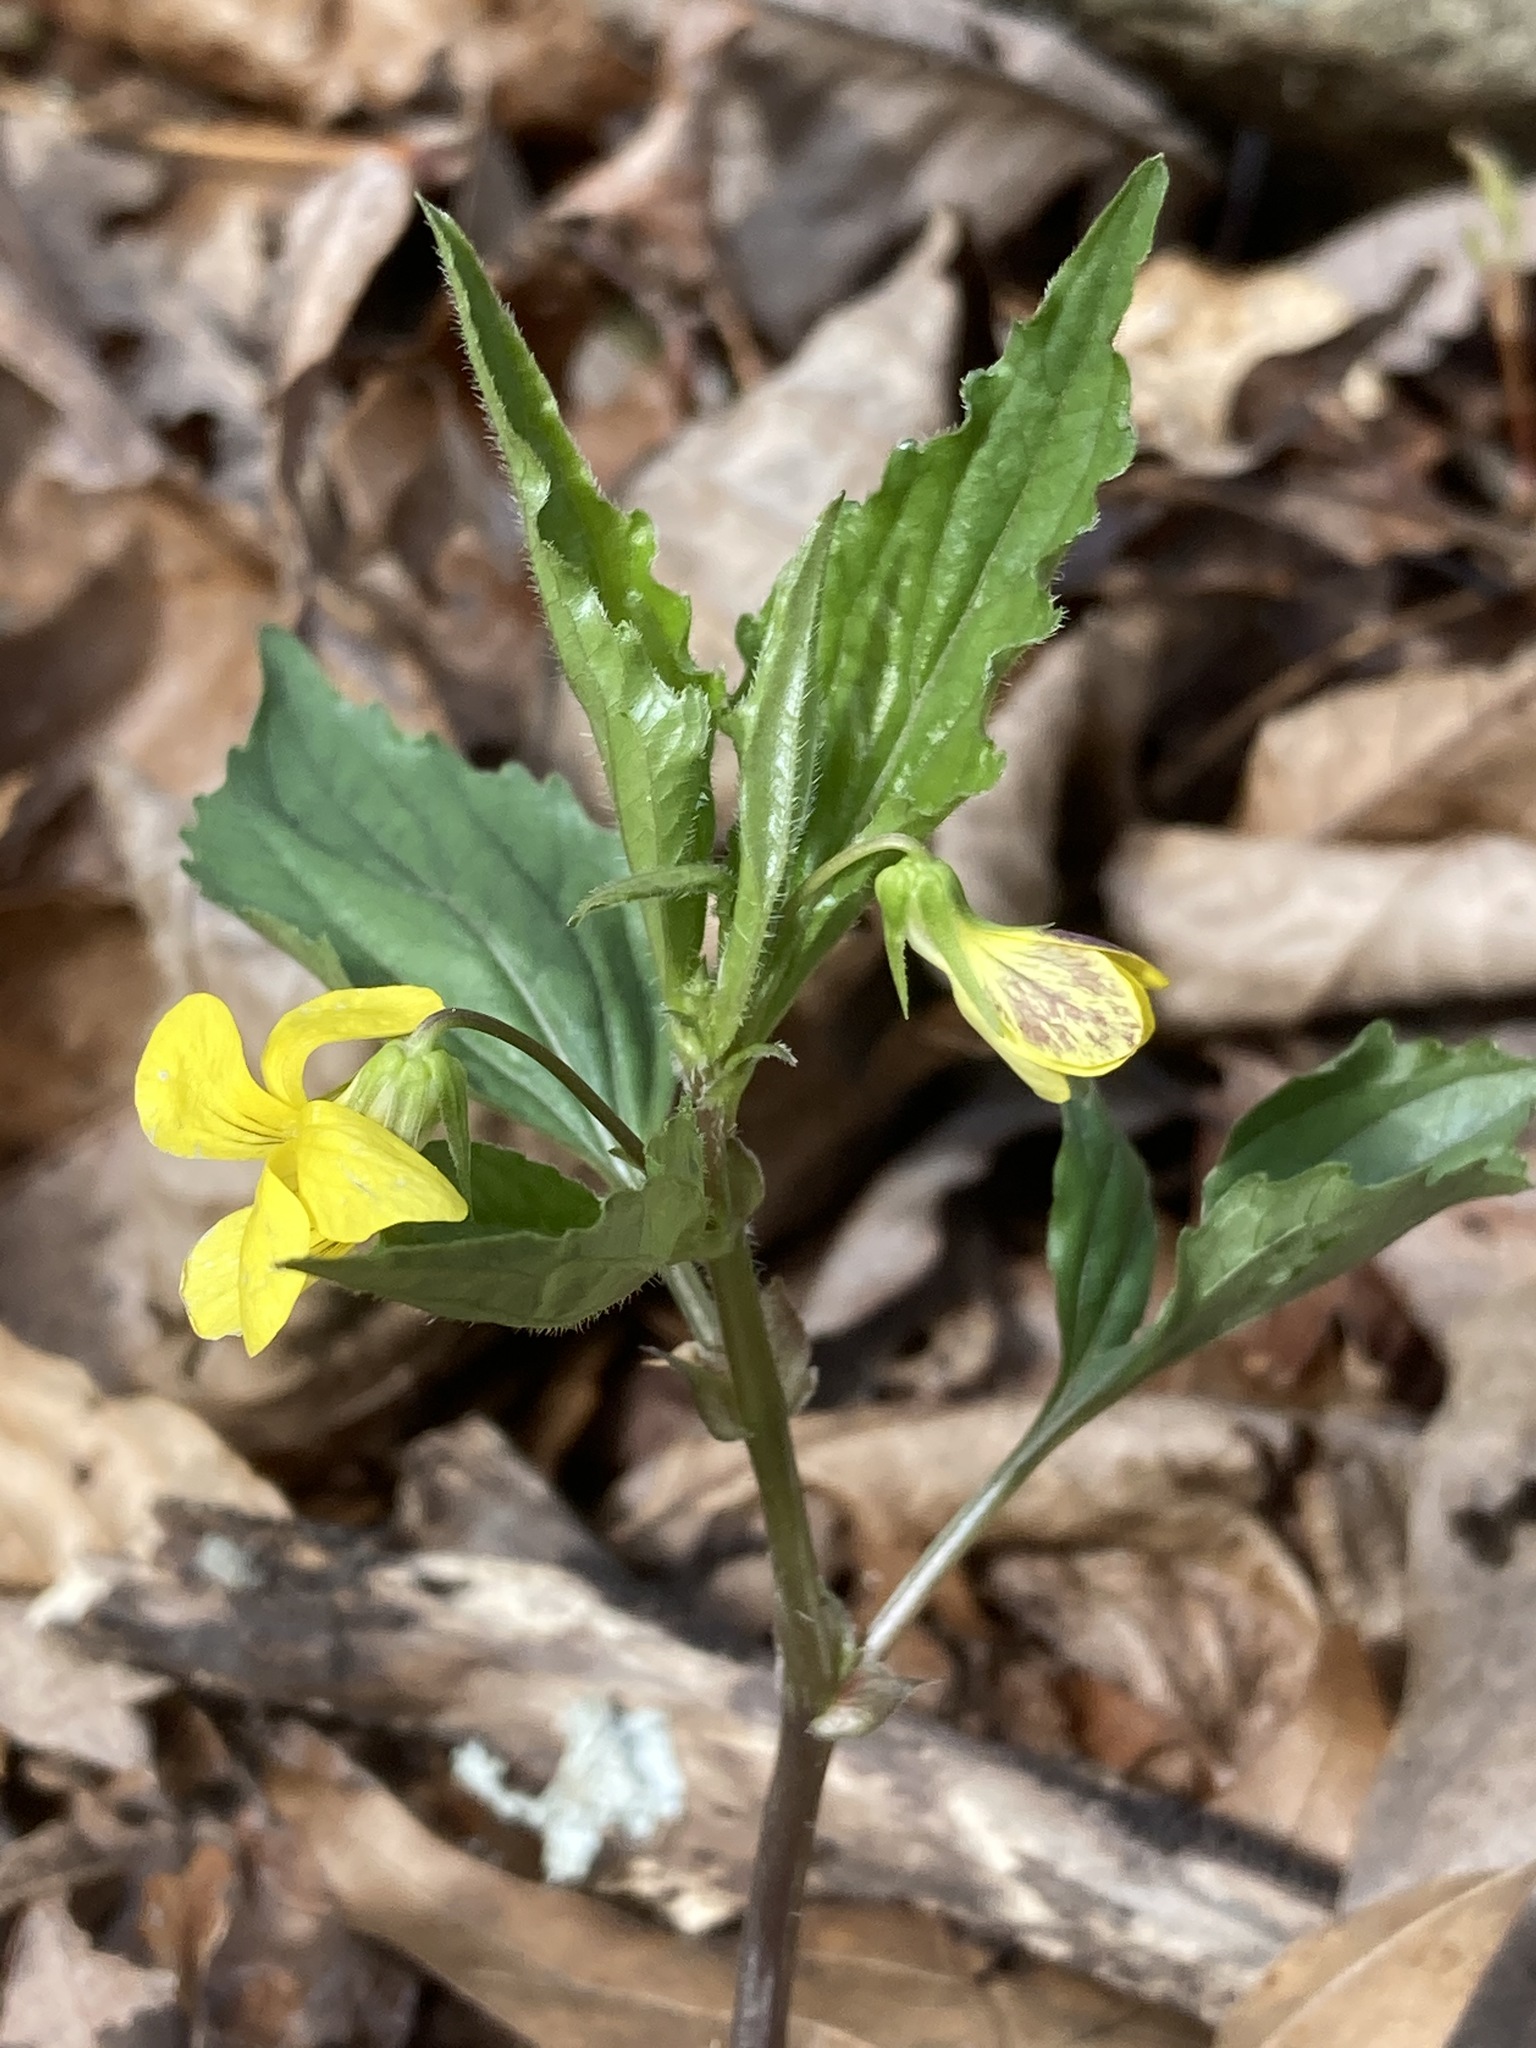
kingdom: Plantae
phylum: Tracheophyta
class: Magnoliopsida
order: Malpighiales
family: Violaceae
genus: Viola
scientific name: Viola tripartita
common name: Three-part violet
